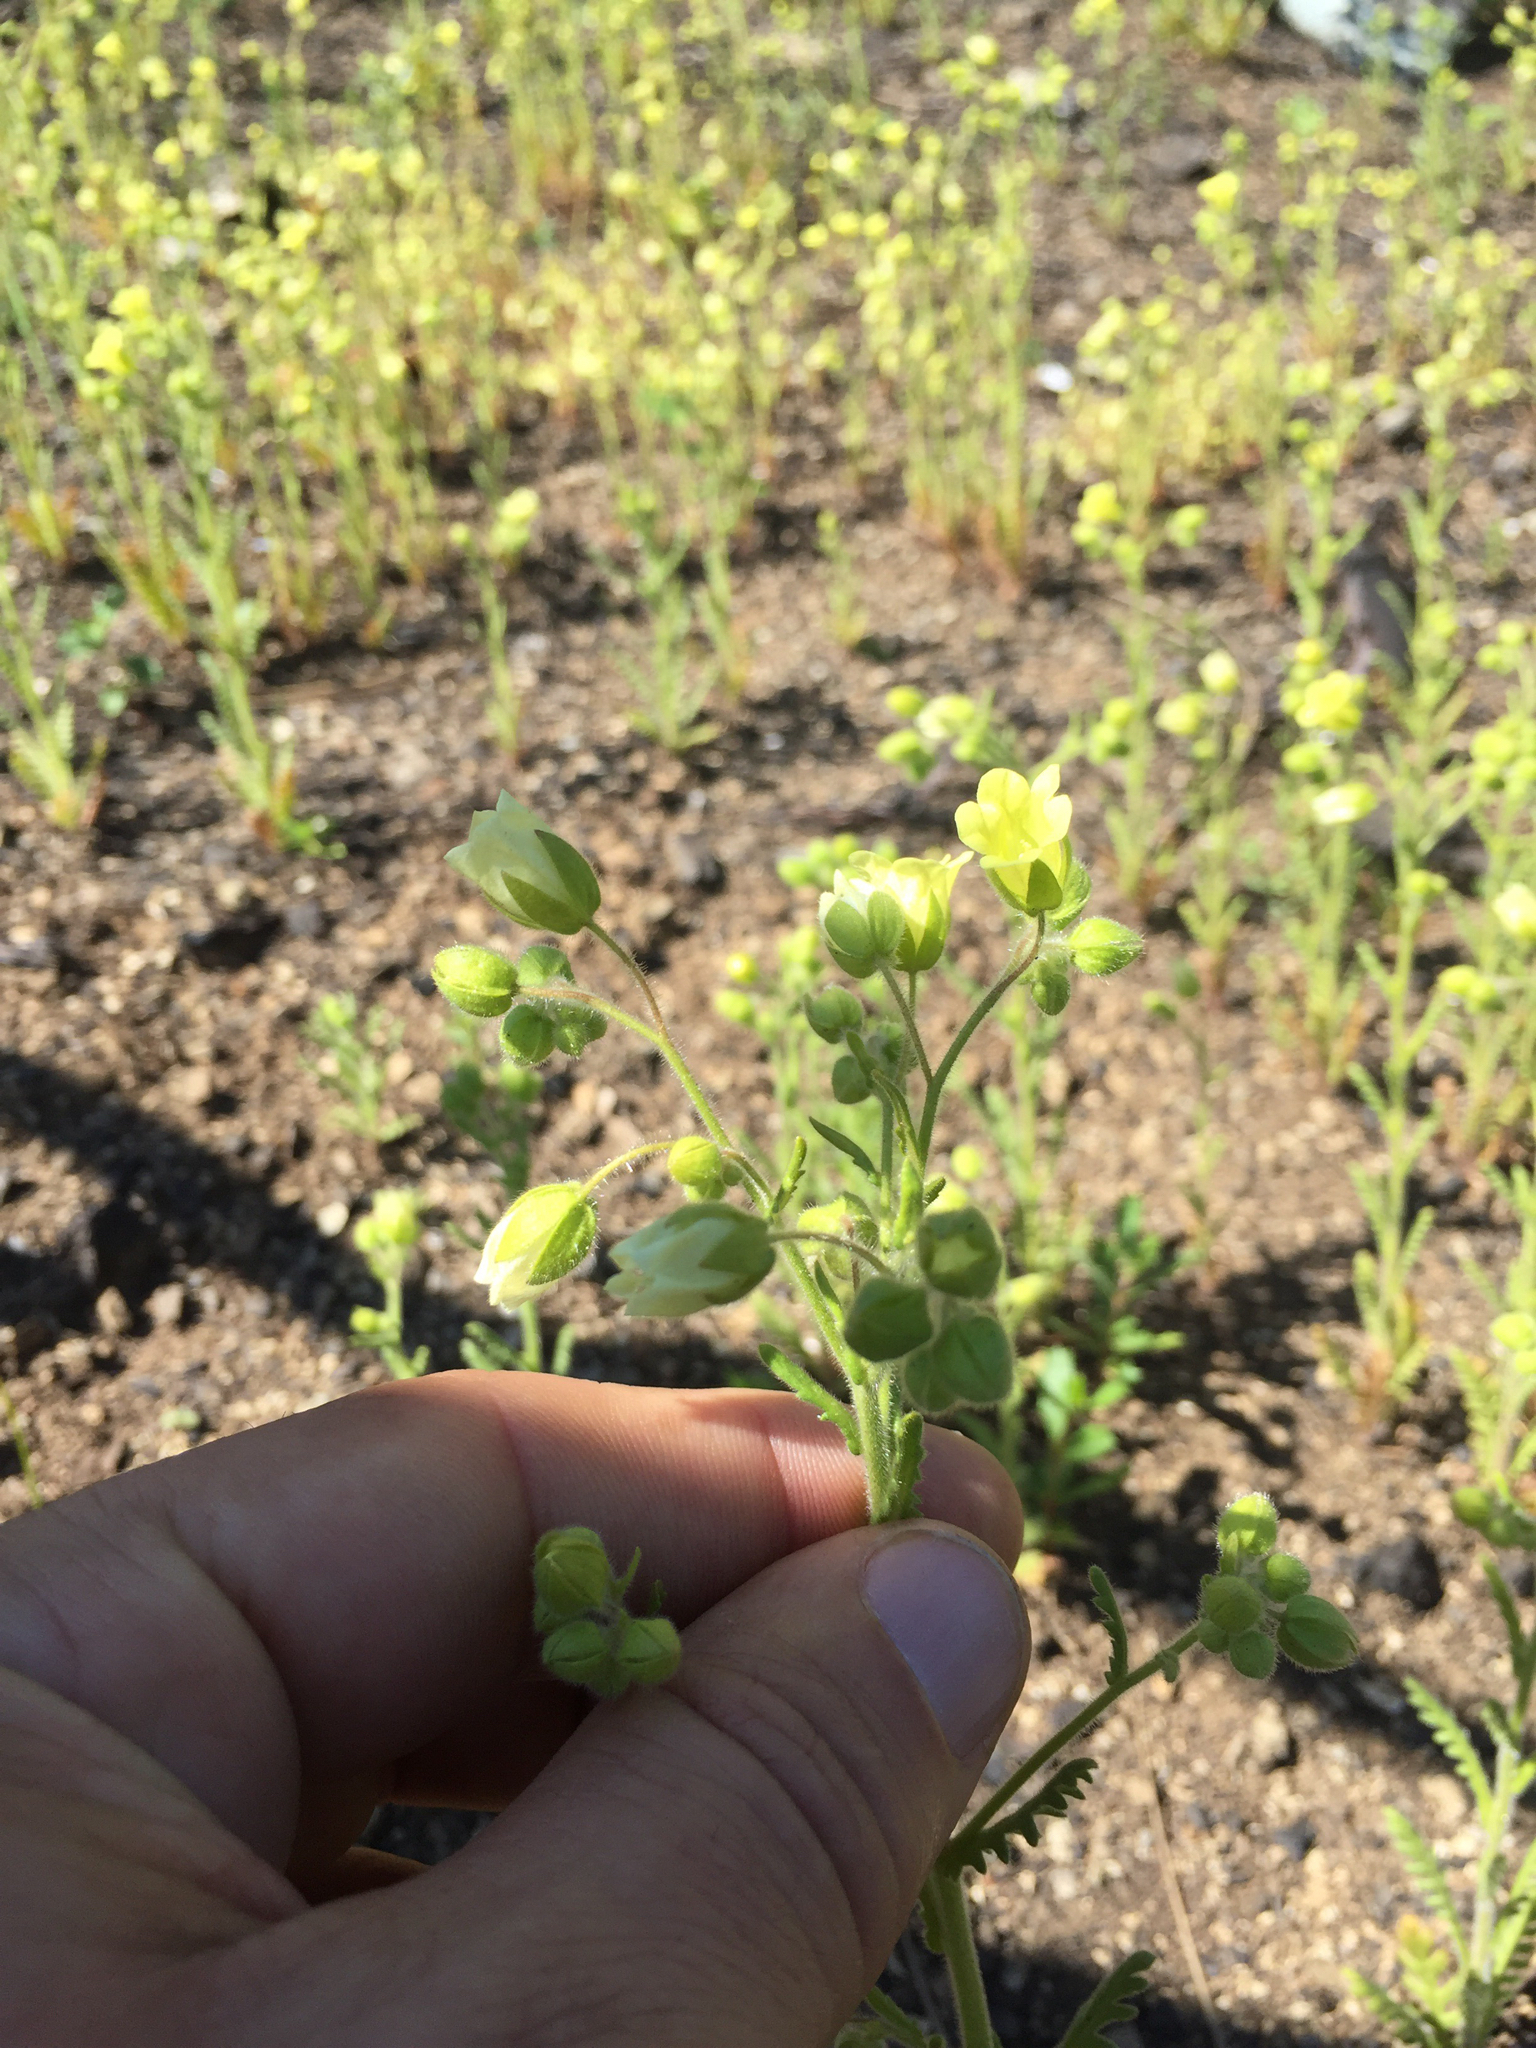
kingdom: Plantae
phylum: Tracheophyta
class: Magnoliopsida
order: Boraginales
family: Hydrophyllaceae
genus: Emmenanthe
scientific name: Emmenanthe penduliflora
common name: Whispering-bells
